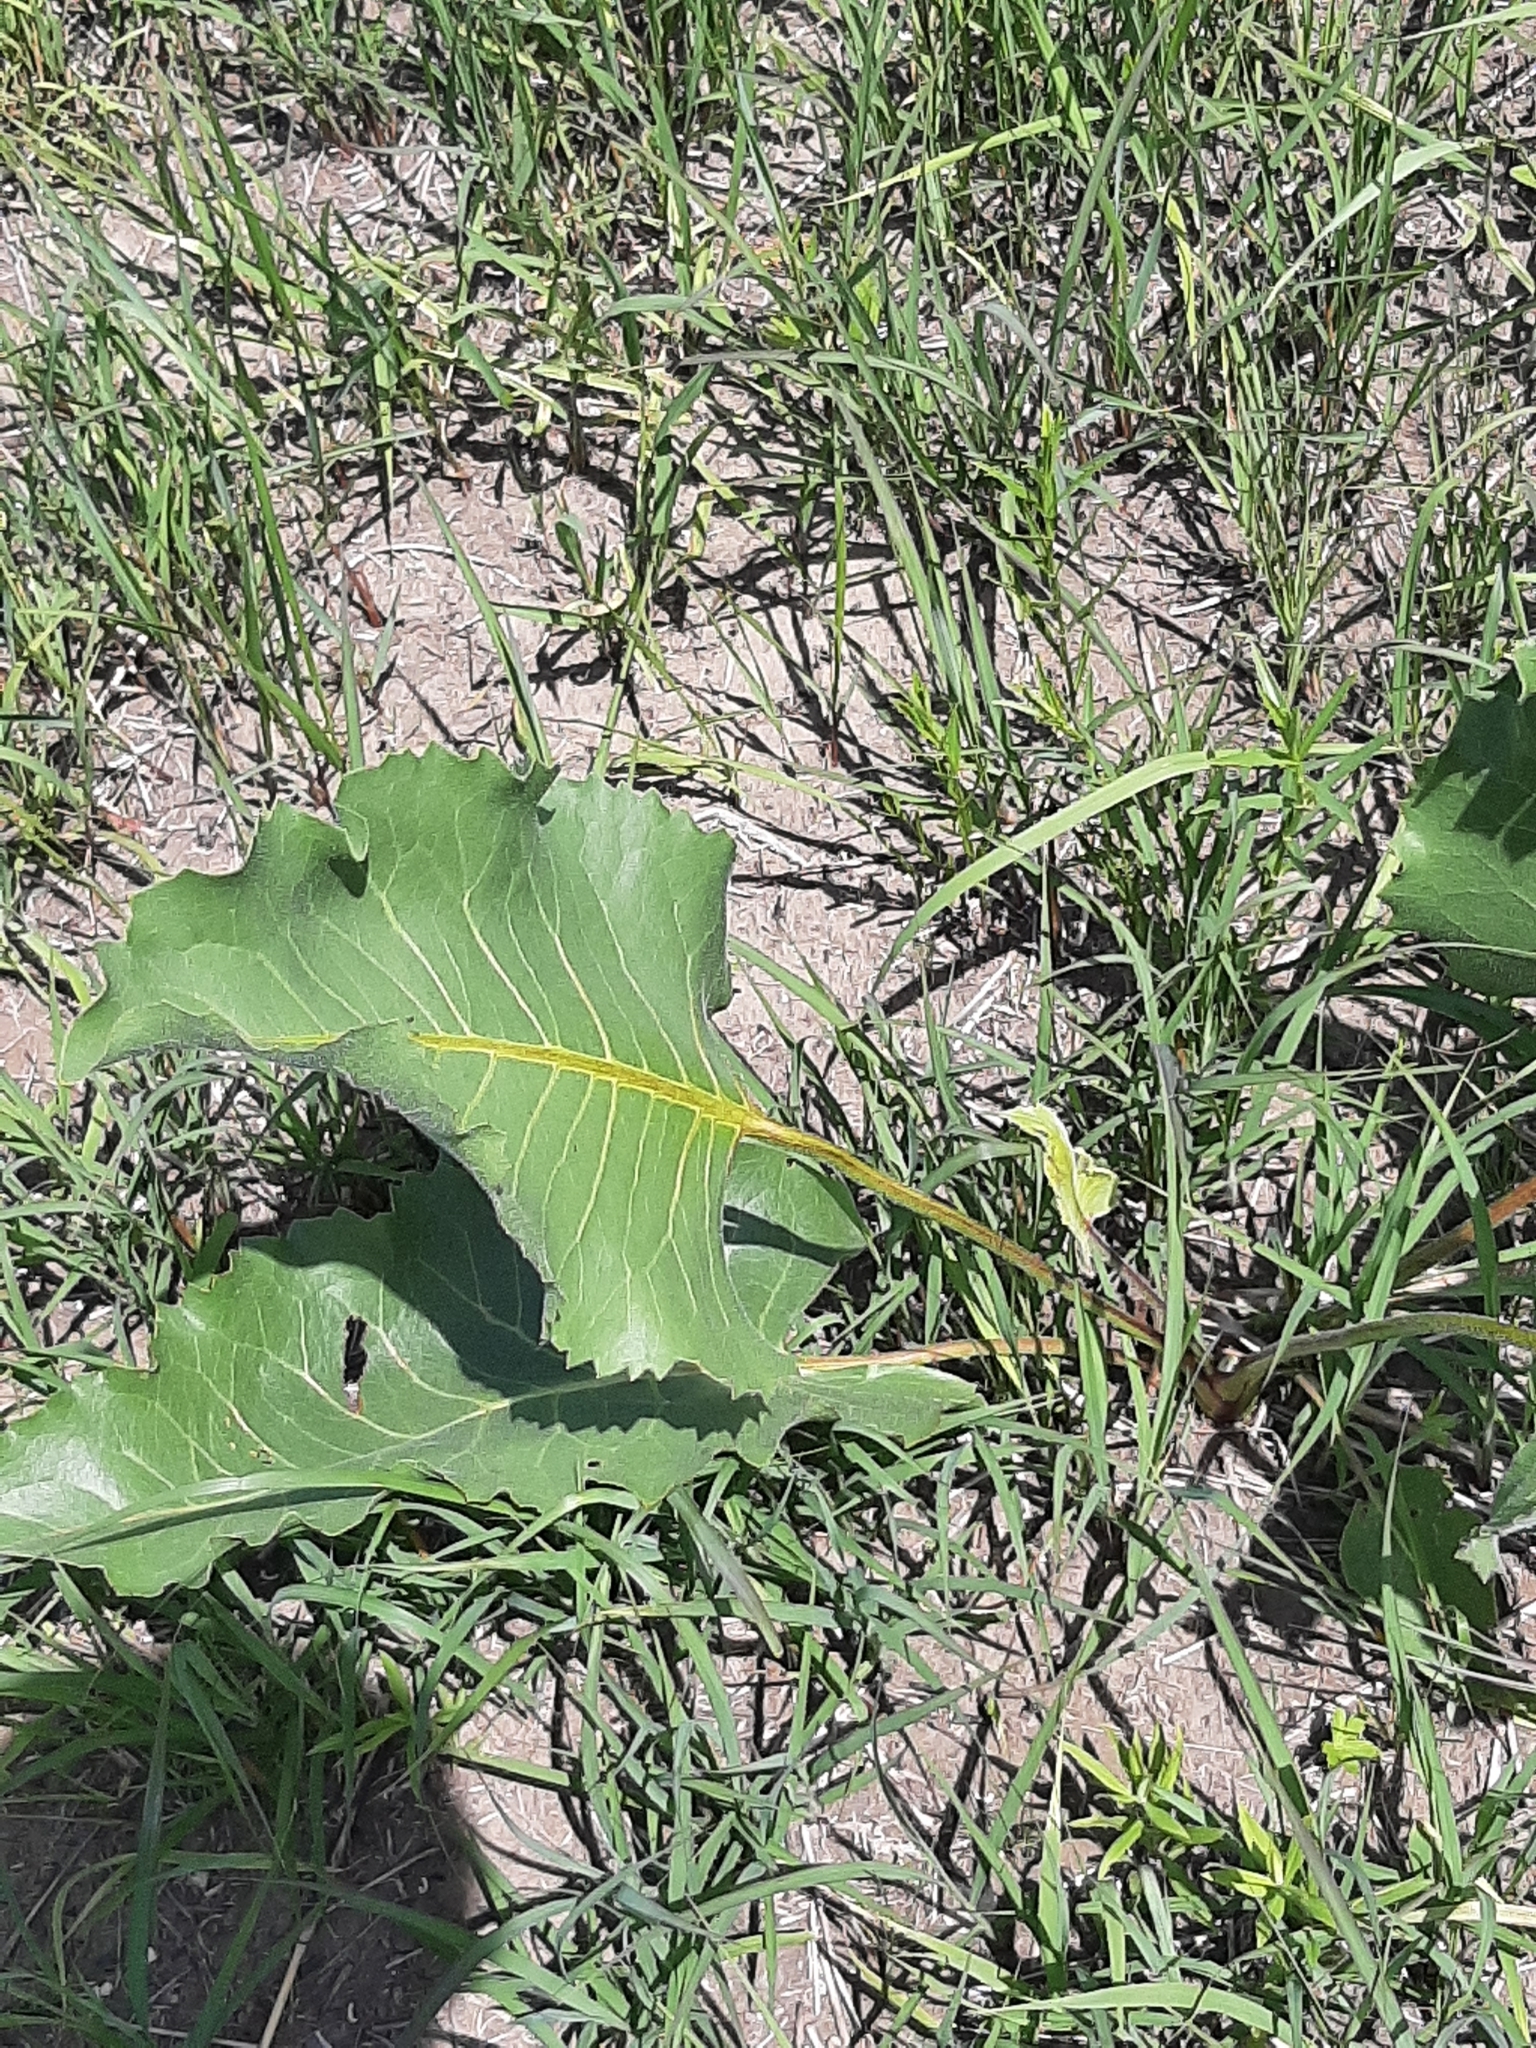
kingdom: Plantae
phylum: Tracheophyta
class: Magnoliopsida
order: Asterales
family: Asteraceae
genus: Silphium
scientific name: Silphium terebinthinaceum
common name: Basal-leaf rosinweed
